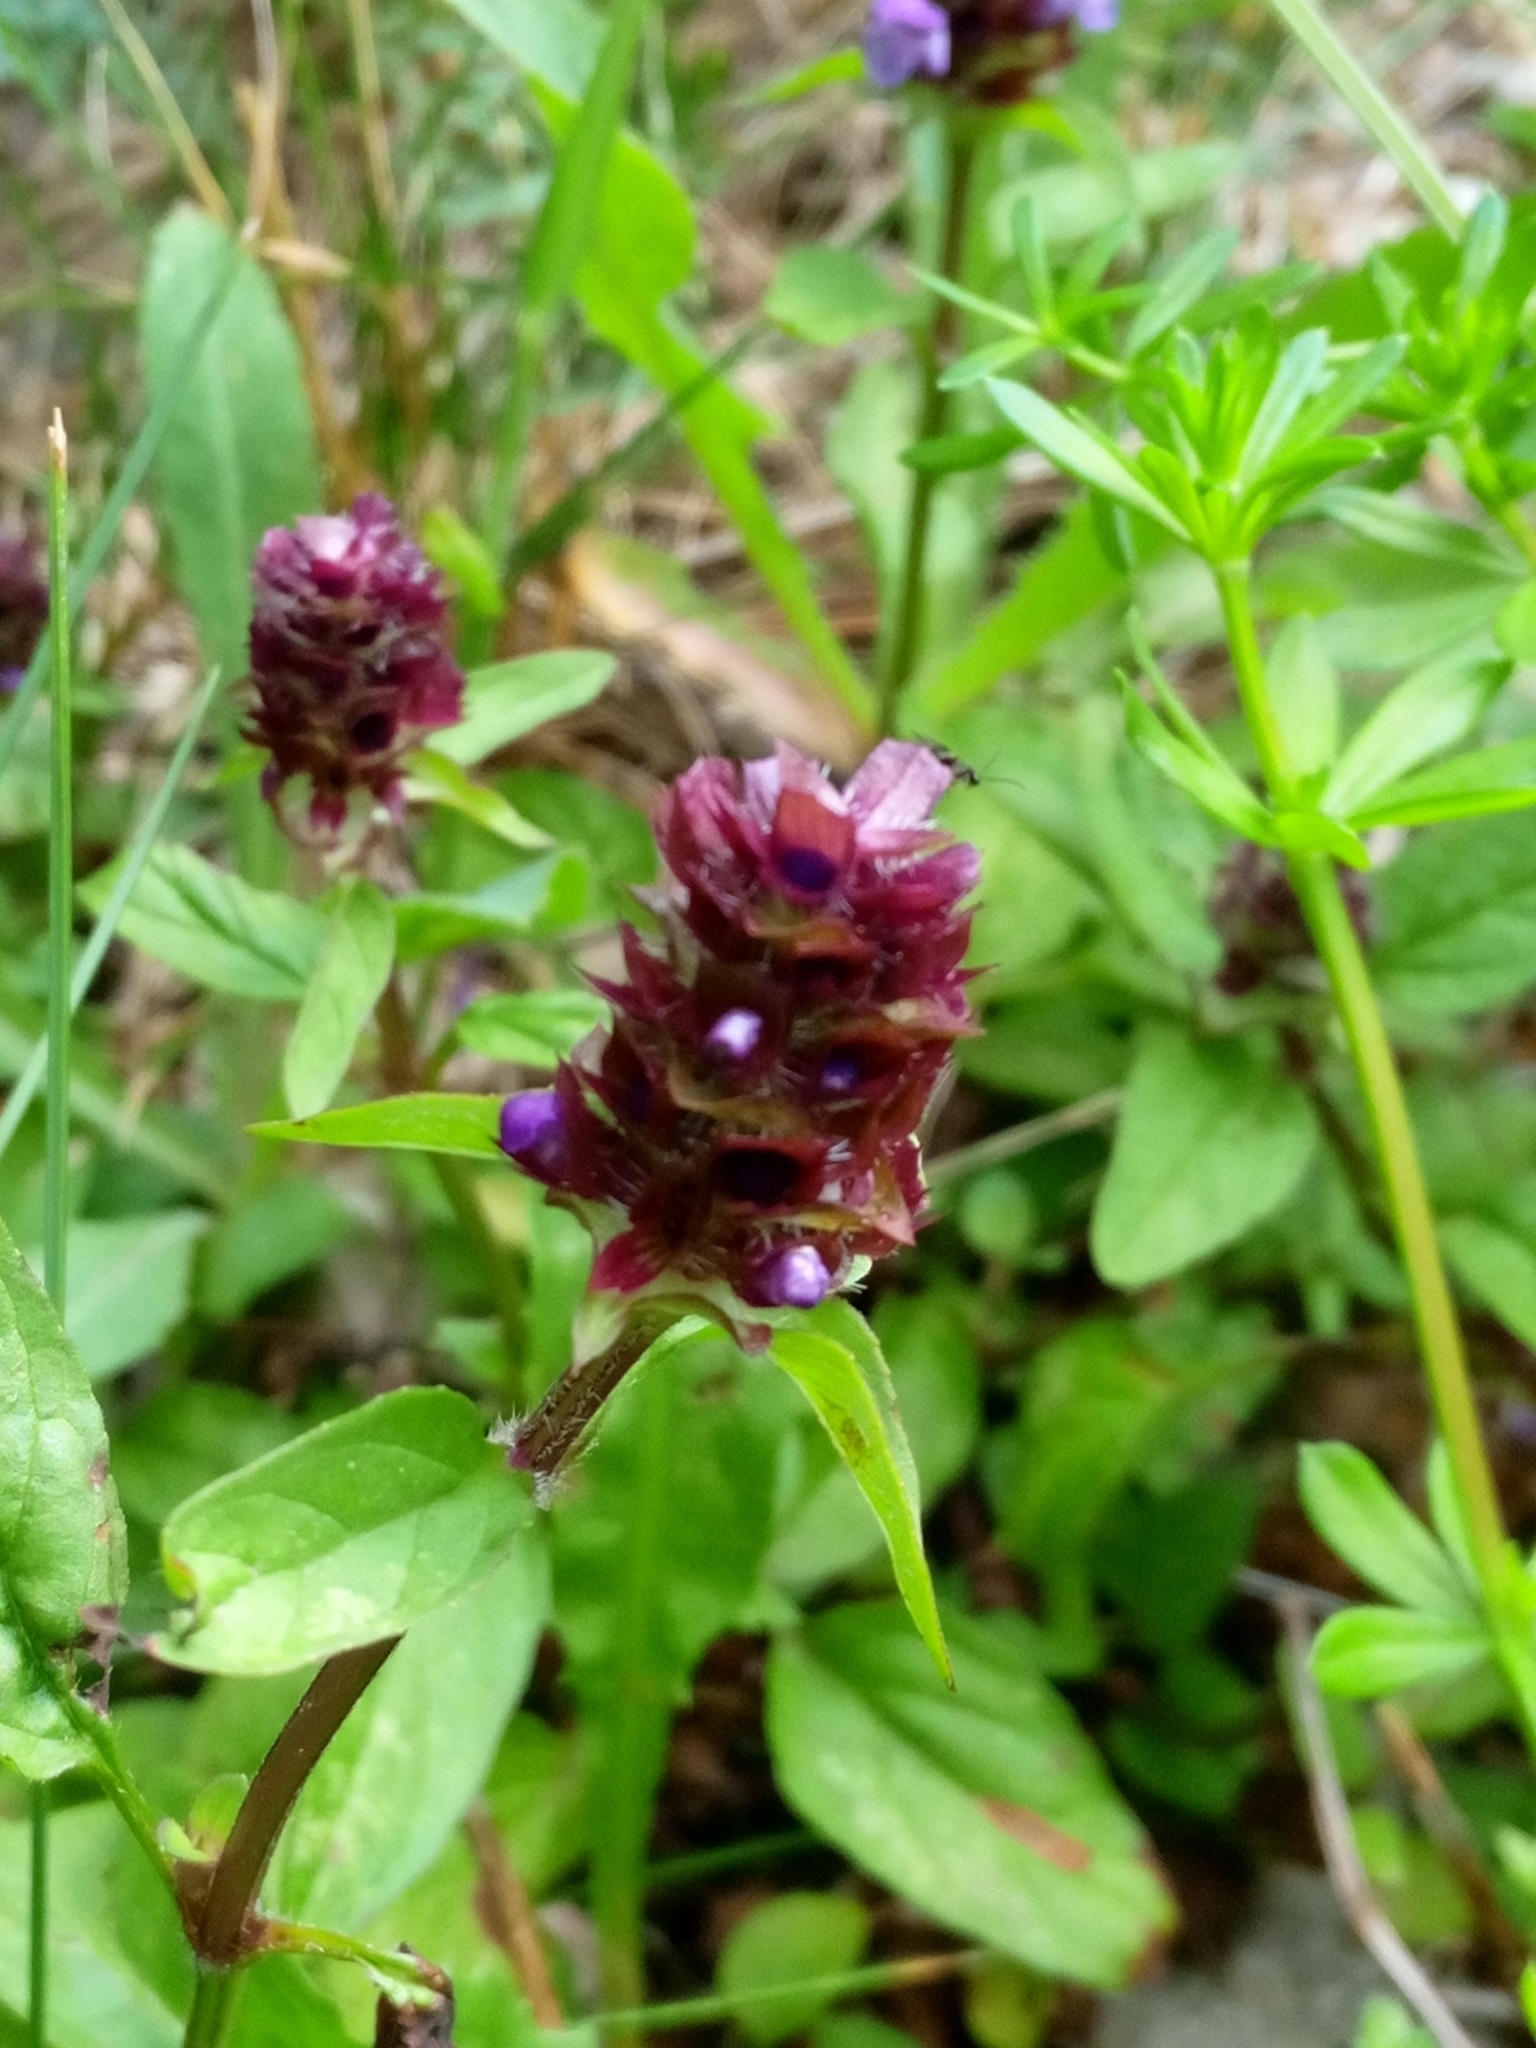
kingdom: Plantae
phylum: Tracheophyta
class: Magnoliopsida
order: Lamiales
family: Lamiaceae
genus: Prunella
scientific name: Prunella vulgaris
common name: Heal-all
